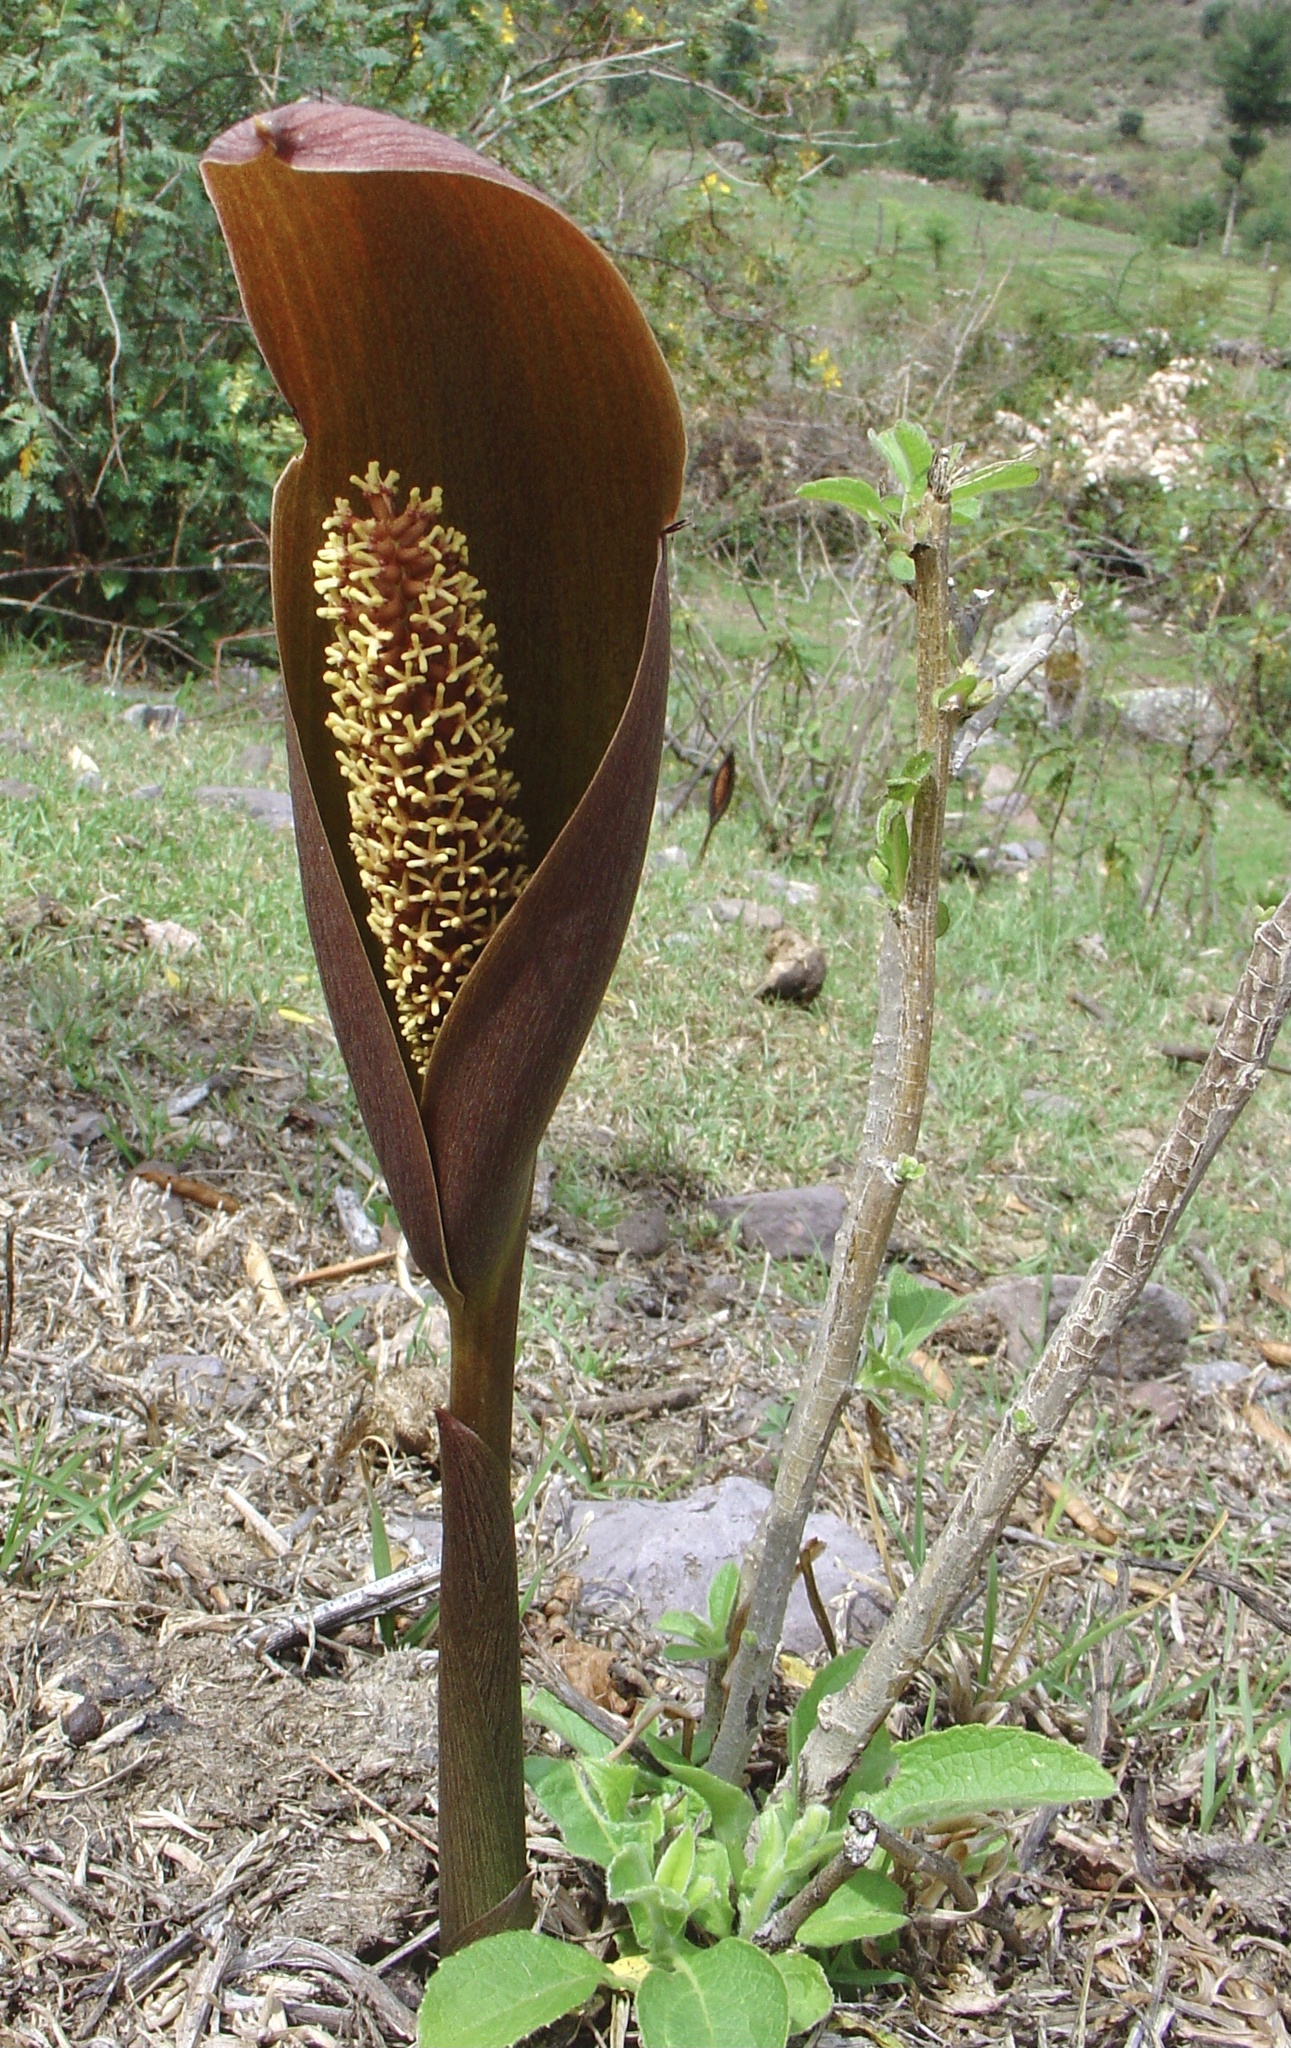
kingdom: Plantae
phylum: Tracheophyta
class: Liliopsida
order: Alismatales
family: Araceae
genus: Gorgonidium
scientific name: Gorgonidium vargasii
